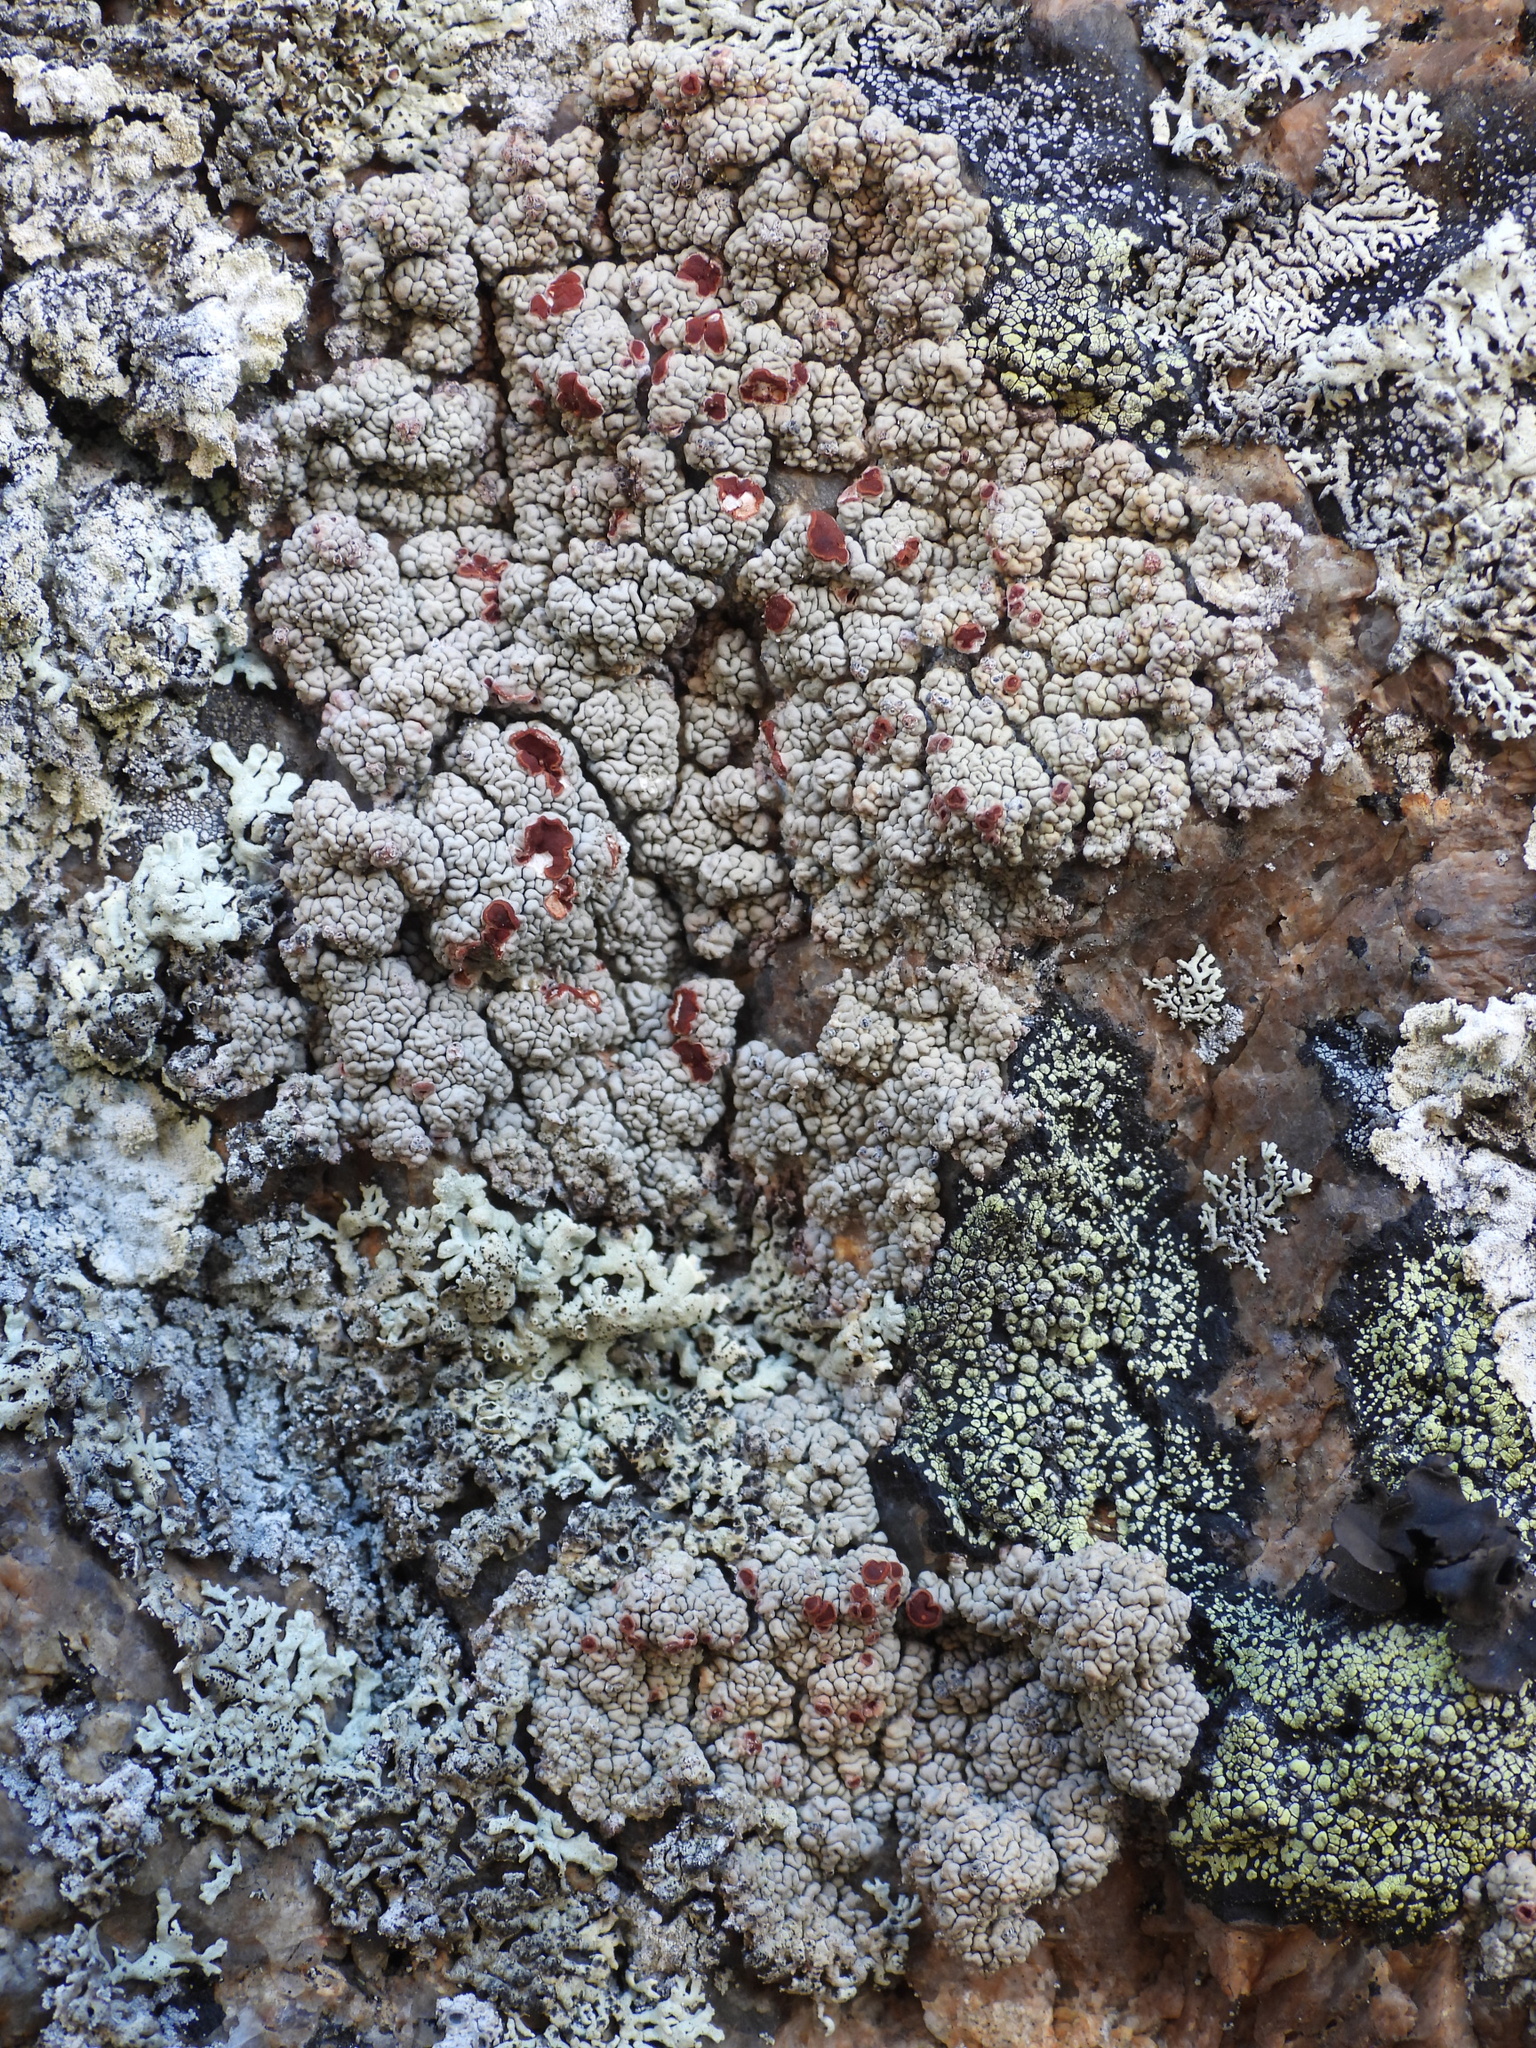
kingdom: Fungi
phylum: Ascomycota
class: Lecanoromycetes
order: Umbilicariales
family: Ophioparmaceae
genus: Ophioparma
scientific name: Ophioparma ventosa
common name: Blood-spot
